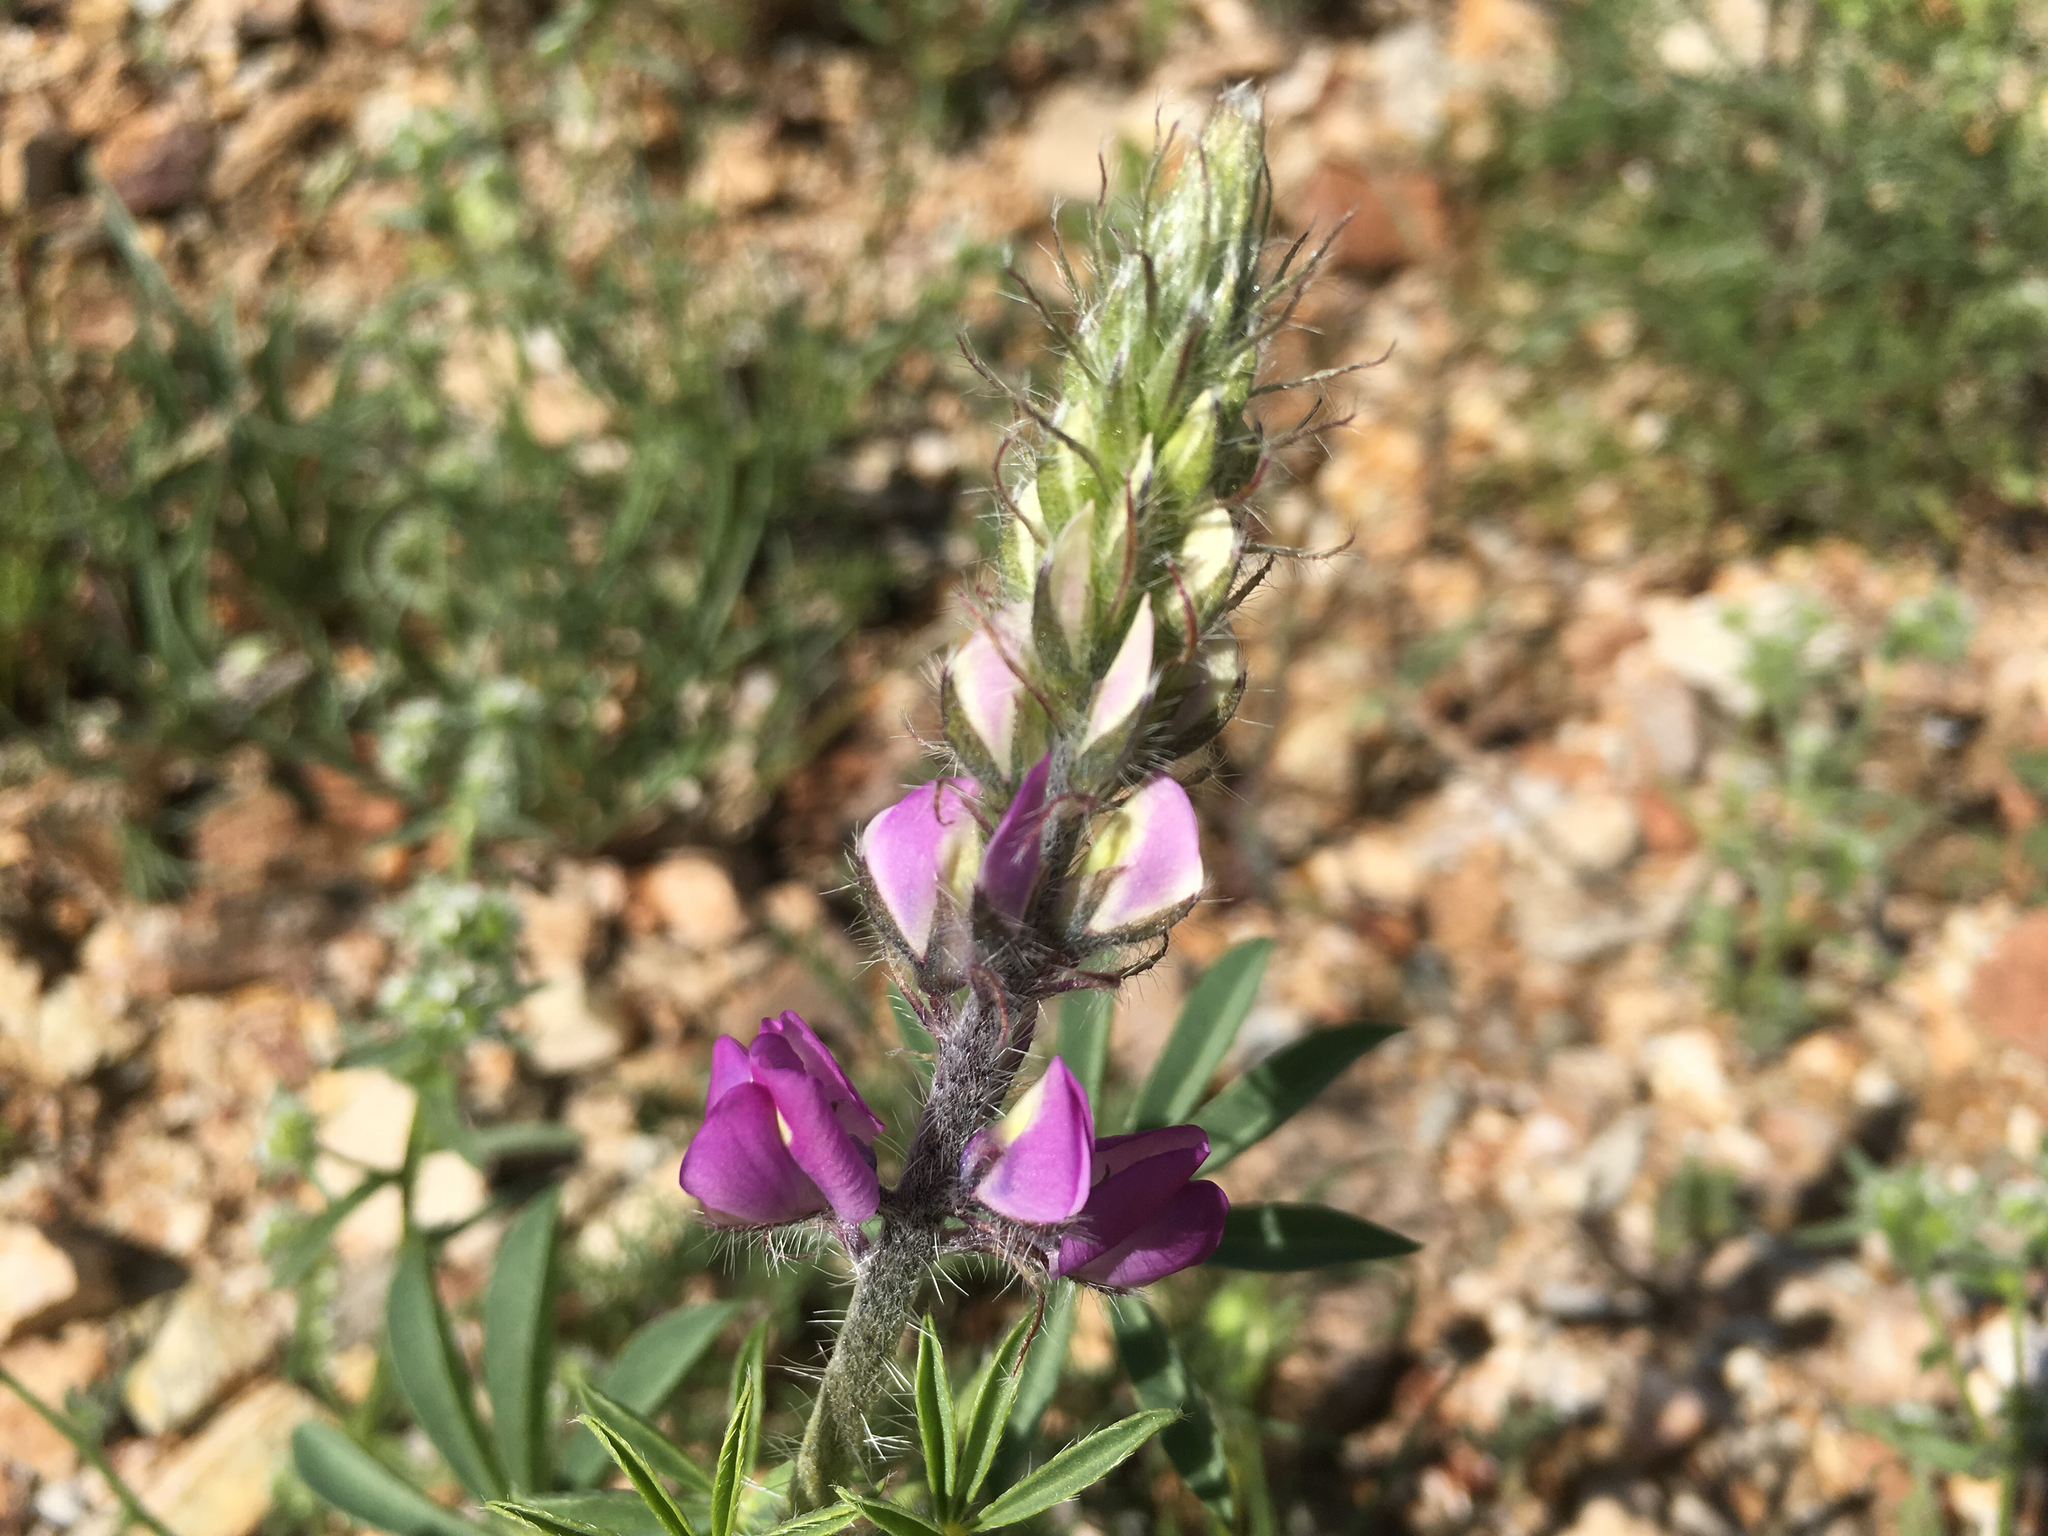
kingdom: Plantae
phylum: Tracheophyta
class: Magnoliopsida
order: Fabales
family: Fabaceae
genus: Lupinus
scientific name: Lupinus arizonicus
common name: Arizona lupine
